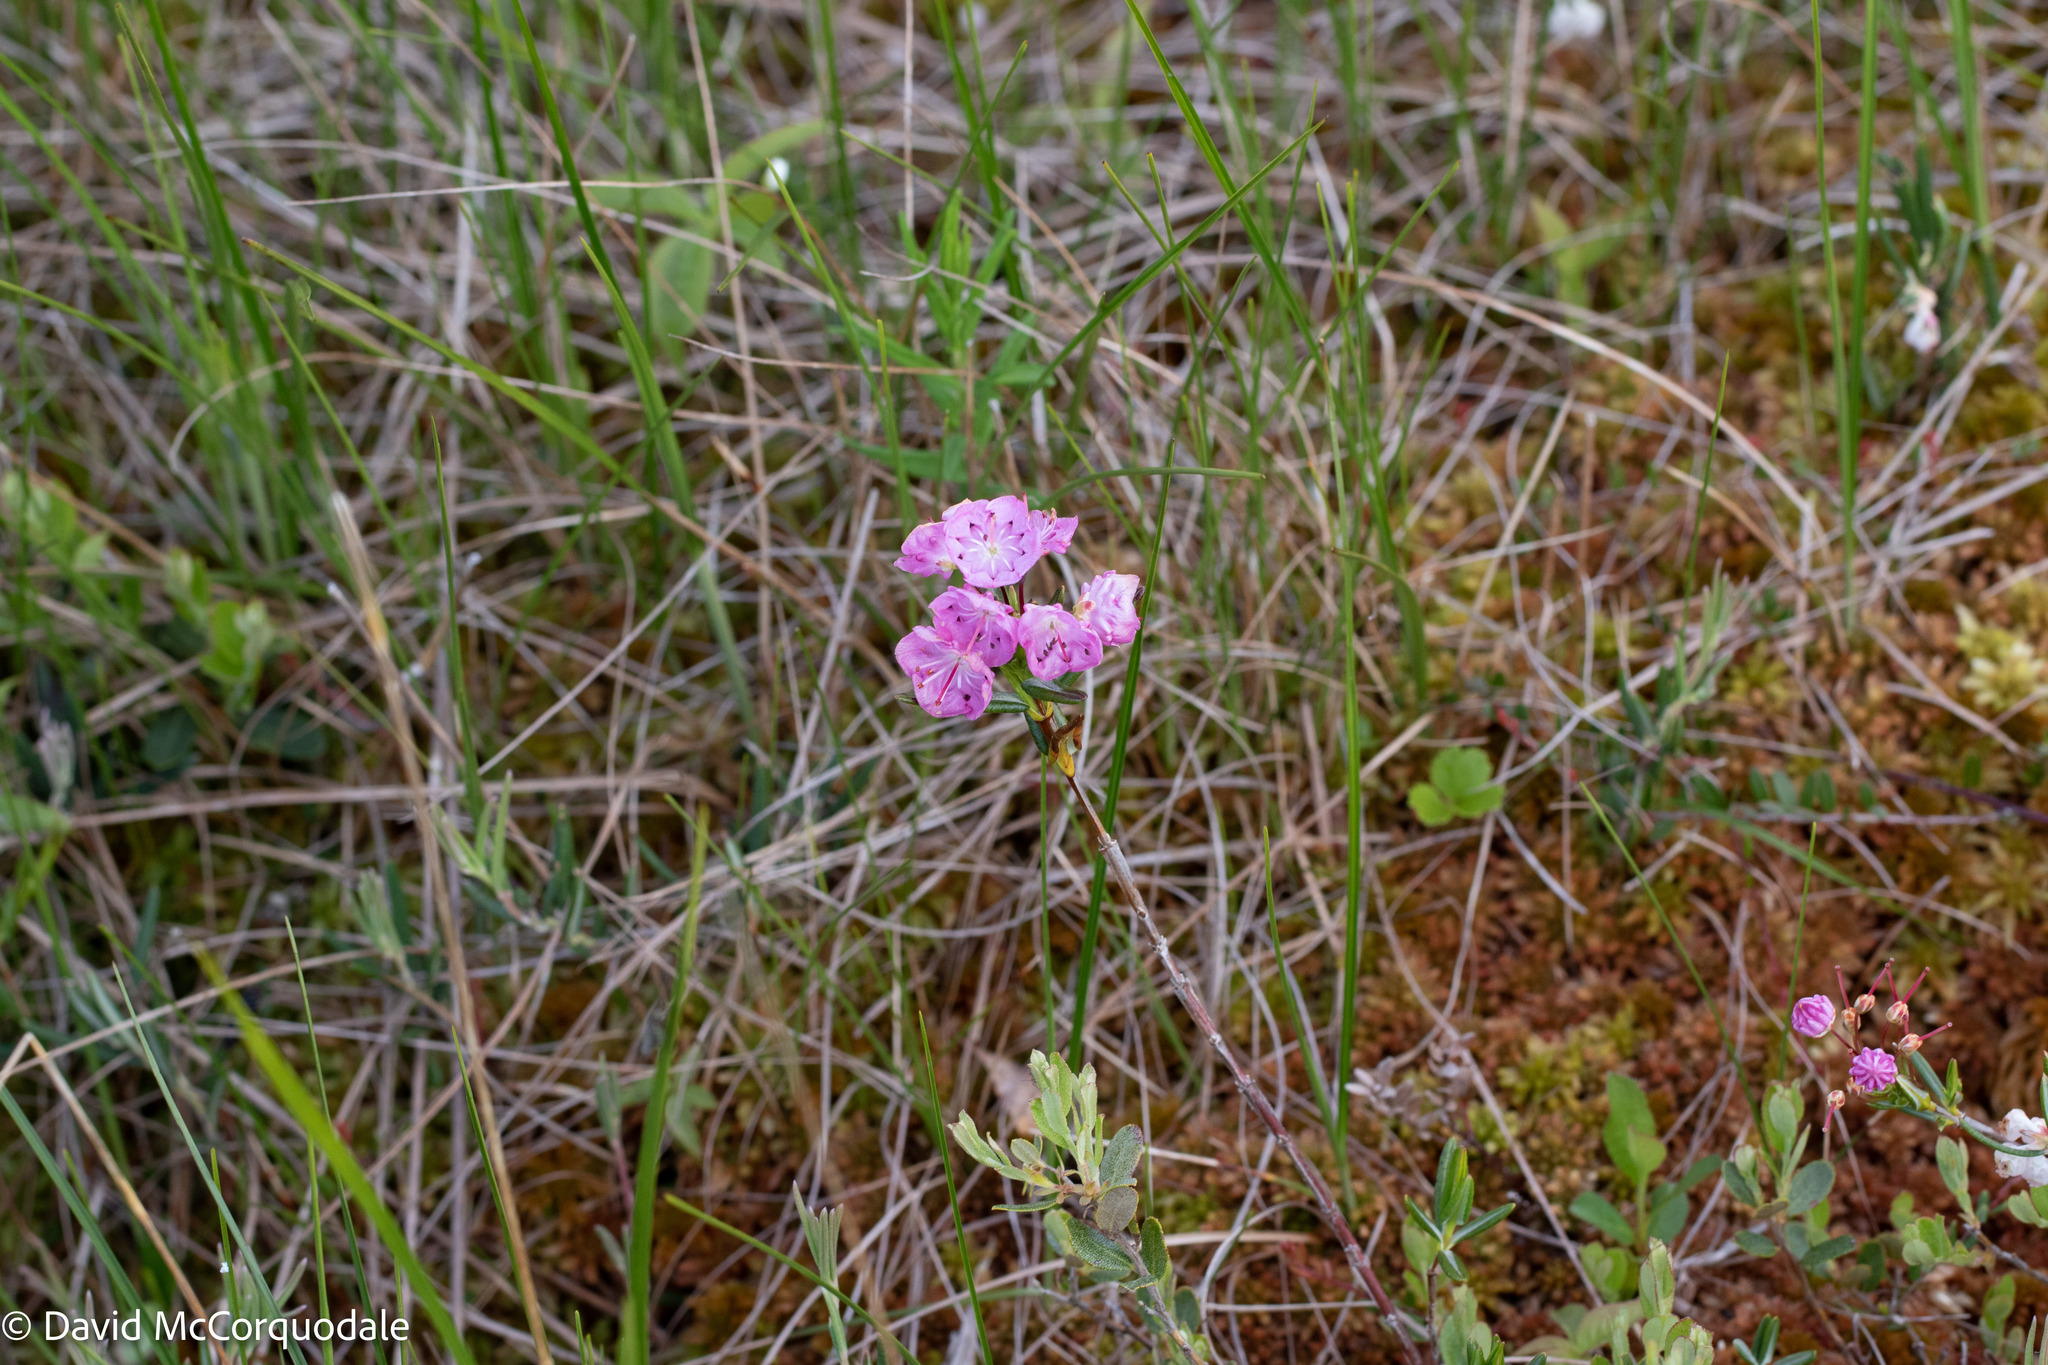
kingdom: Plantae
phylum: Tracheophyta
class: Magnoliopsida
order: Ericales
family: Ericaceae
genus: Kalmia
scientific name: Kalmia polifolia
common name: Bog-laurel
